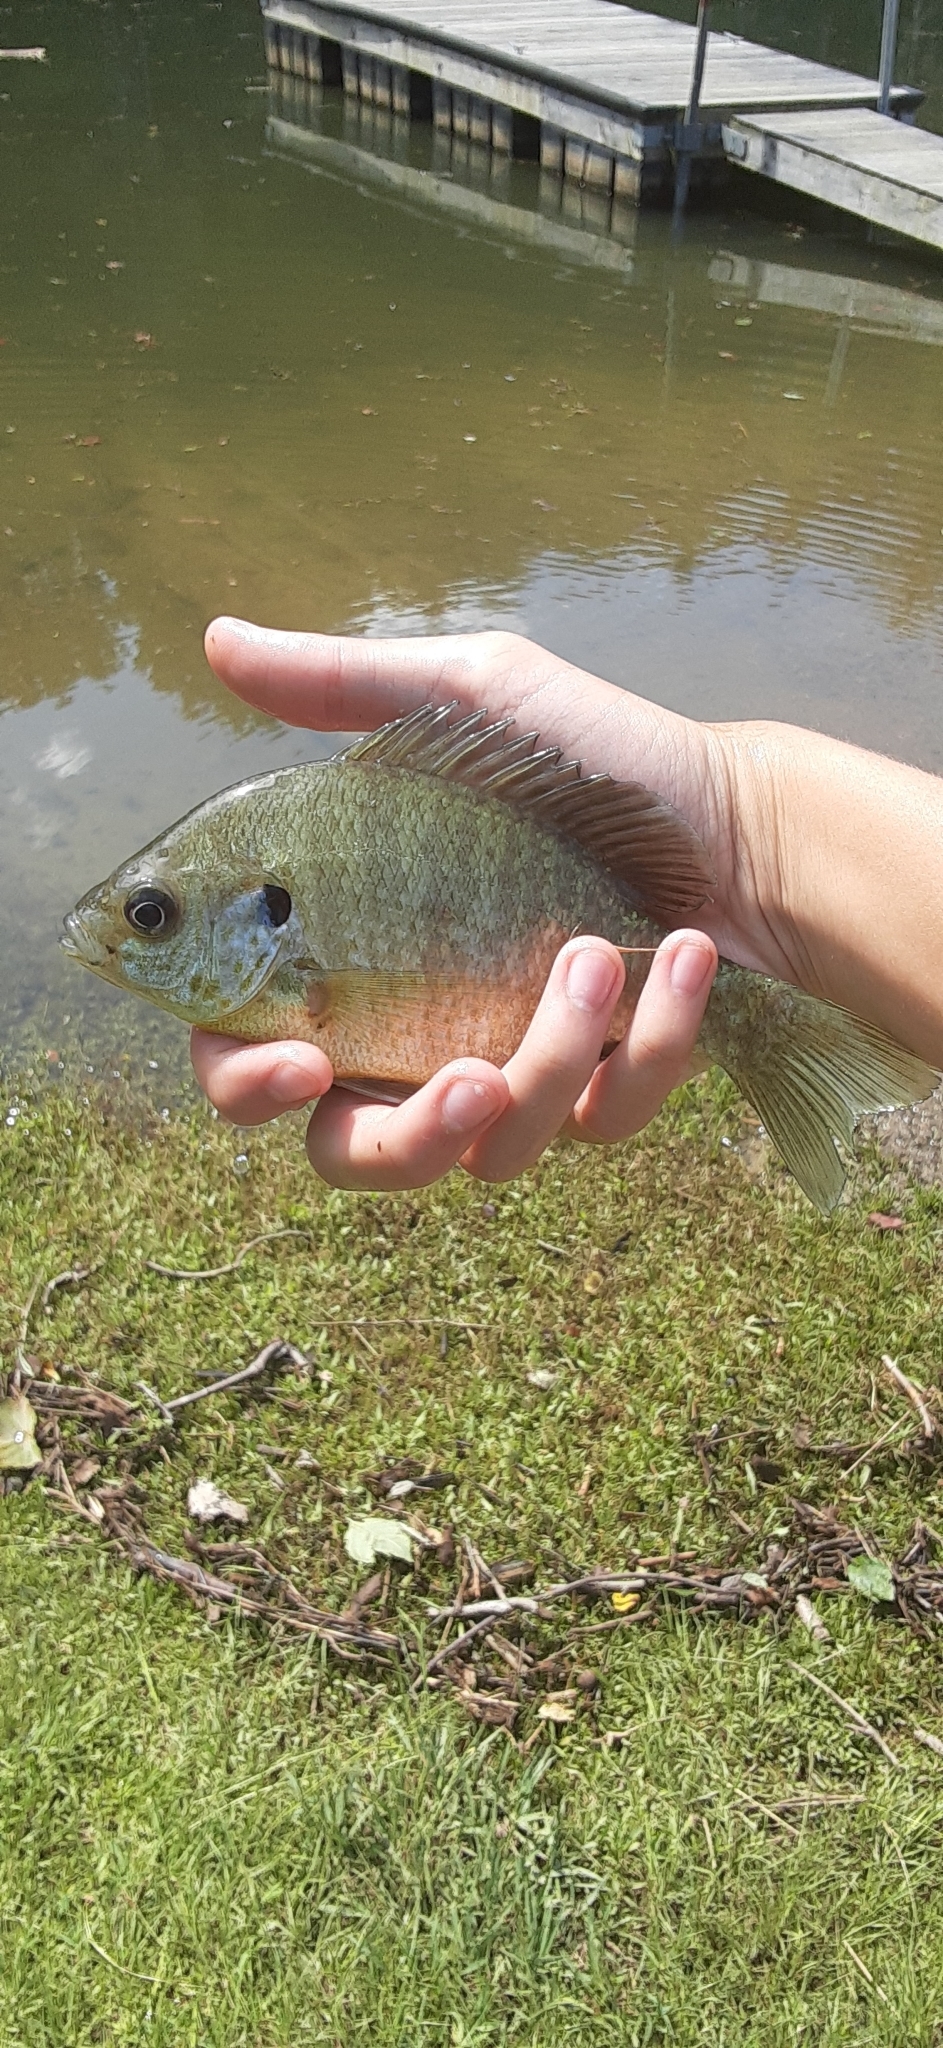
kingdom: Animalia
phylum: Chordata
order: Perciformes
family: Centrarchidae
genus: Lepomis
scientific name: Lepomis
